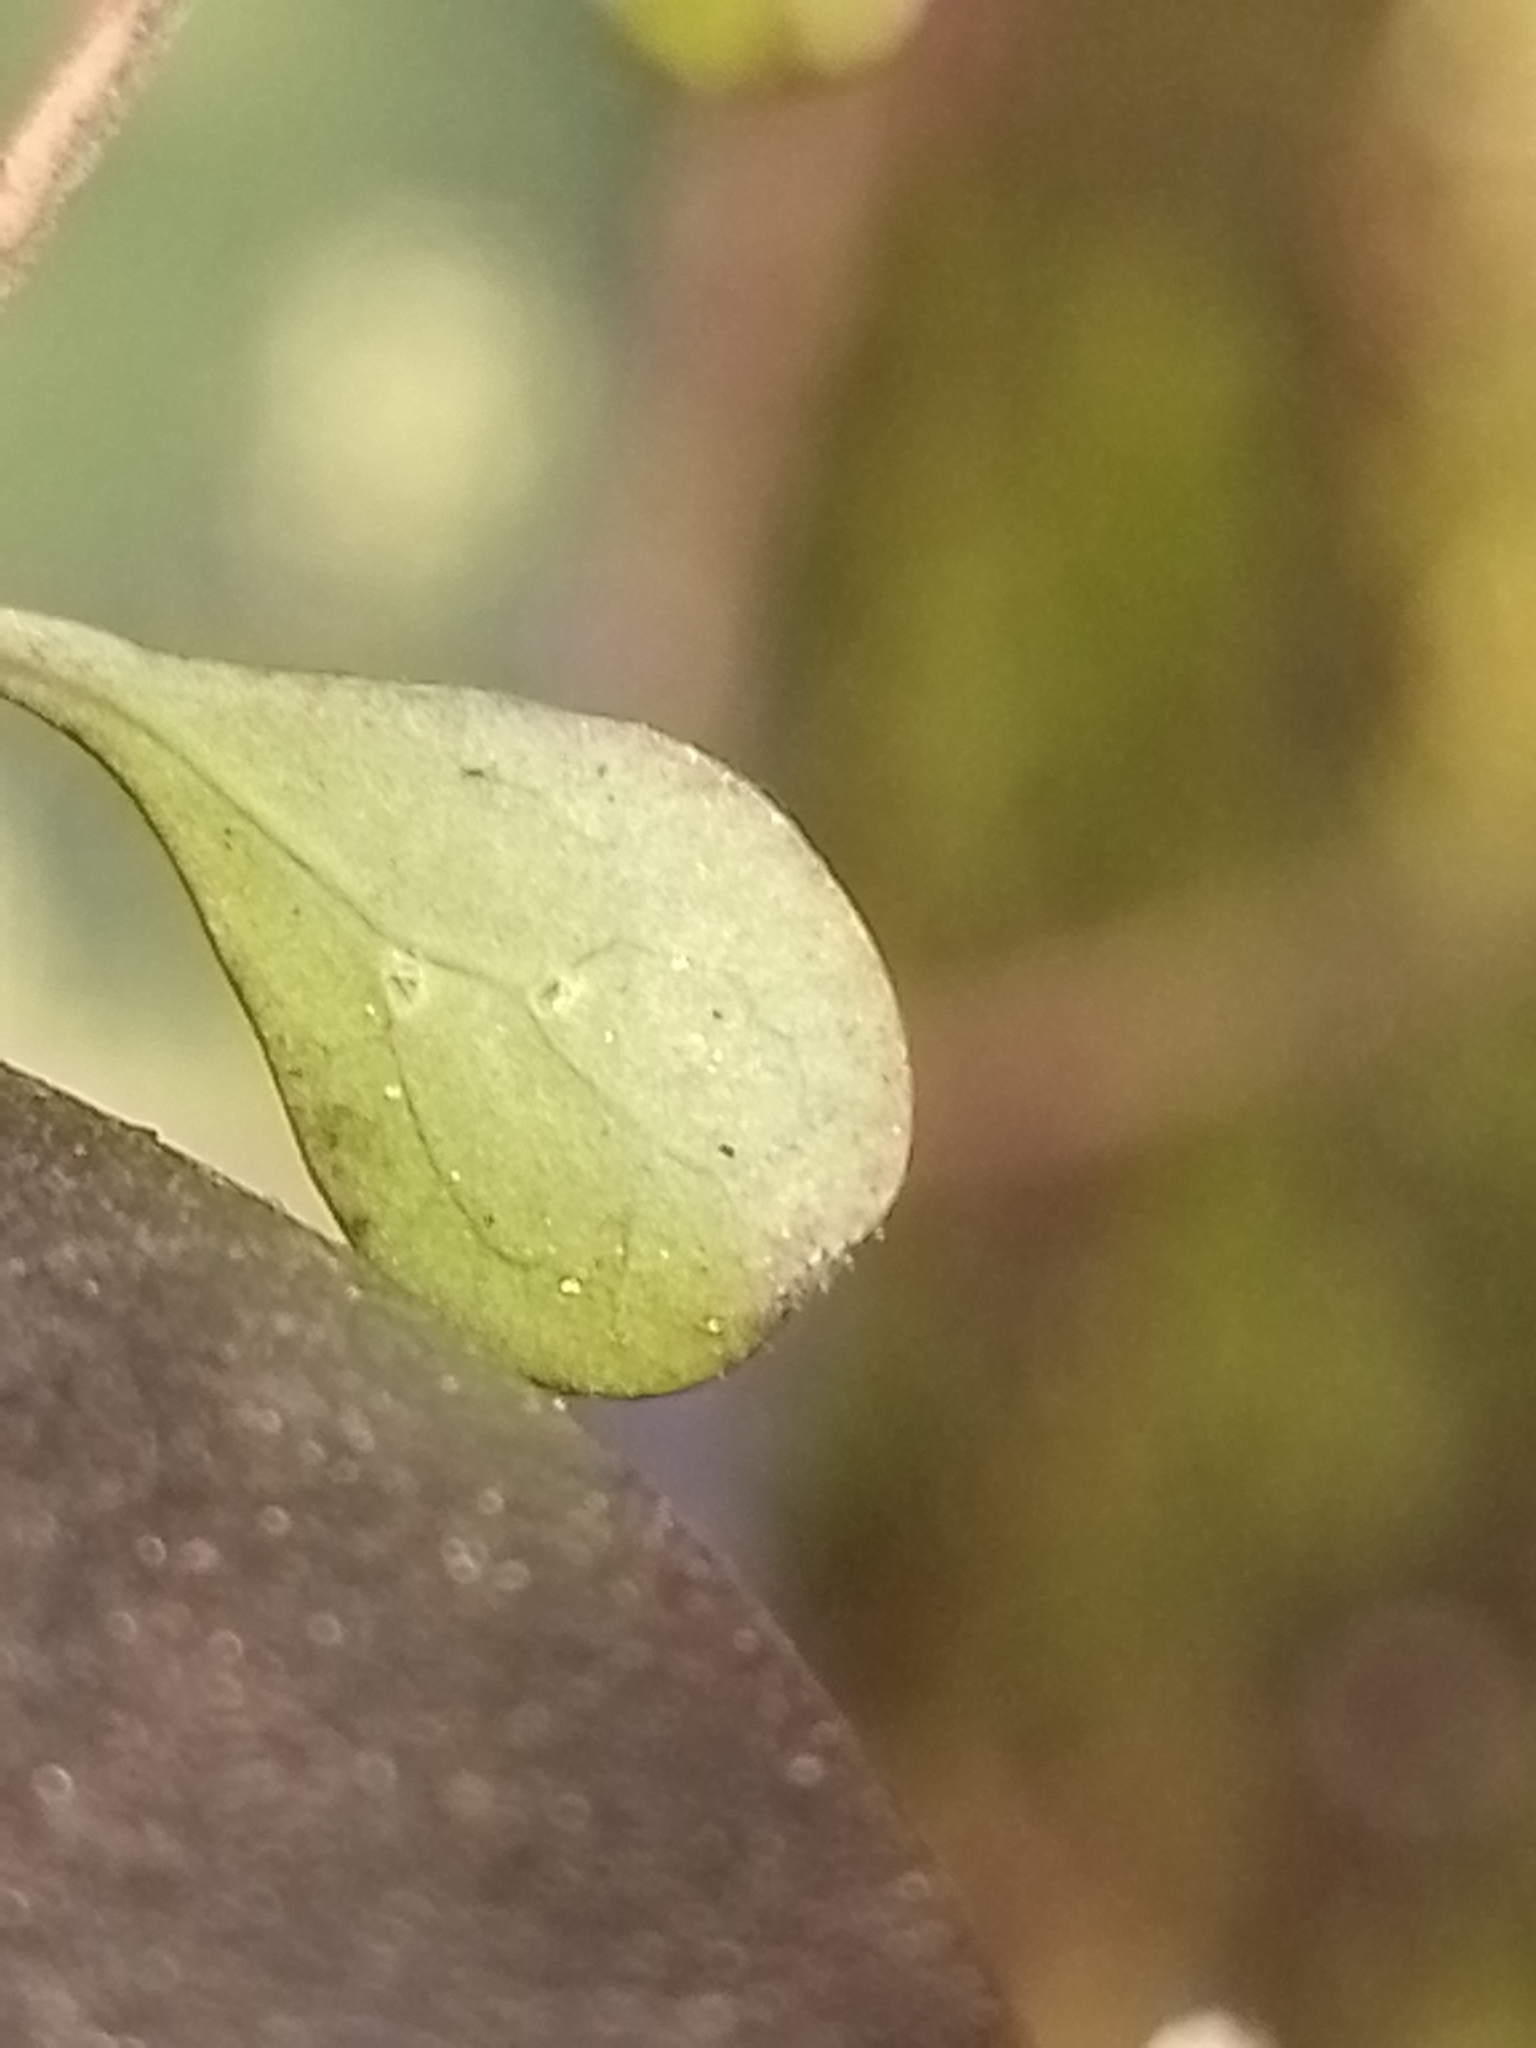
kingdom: Plantae
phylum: Tracheophyta
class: Magnoliopsida
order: Gentianales
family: Rubiaceae
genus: Coprosma
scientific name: Coprosma rigida
